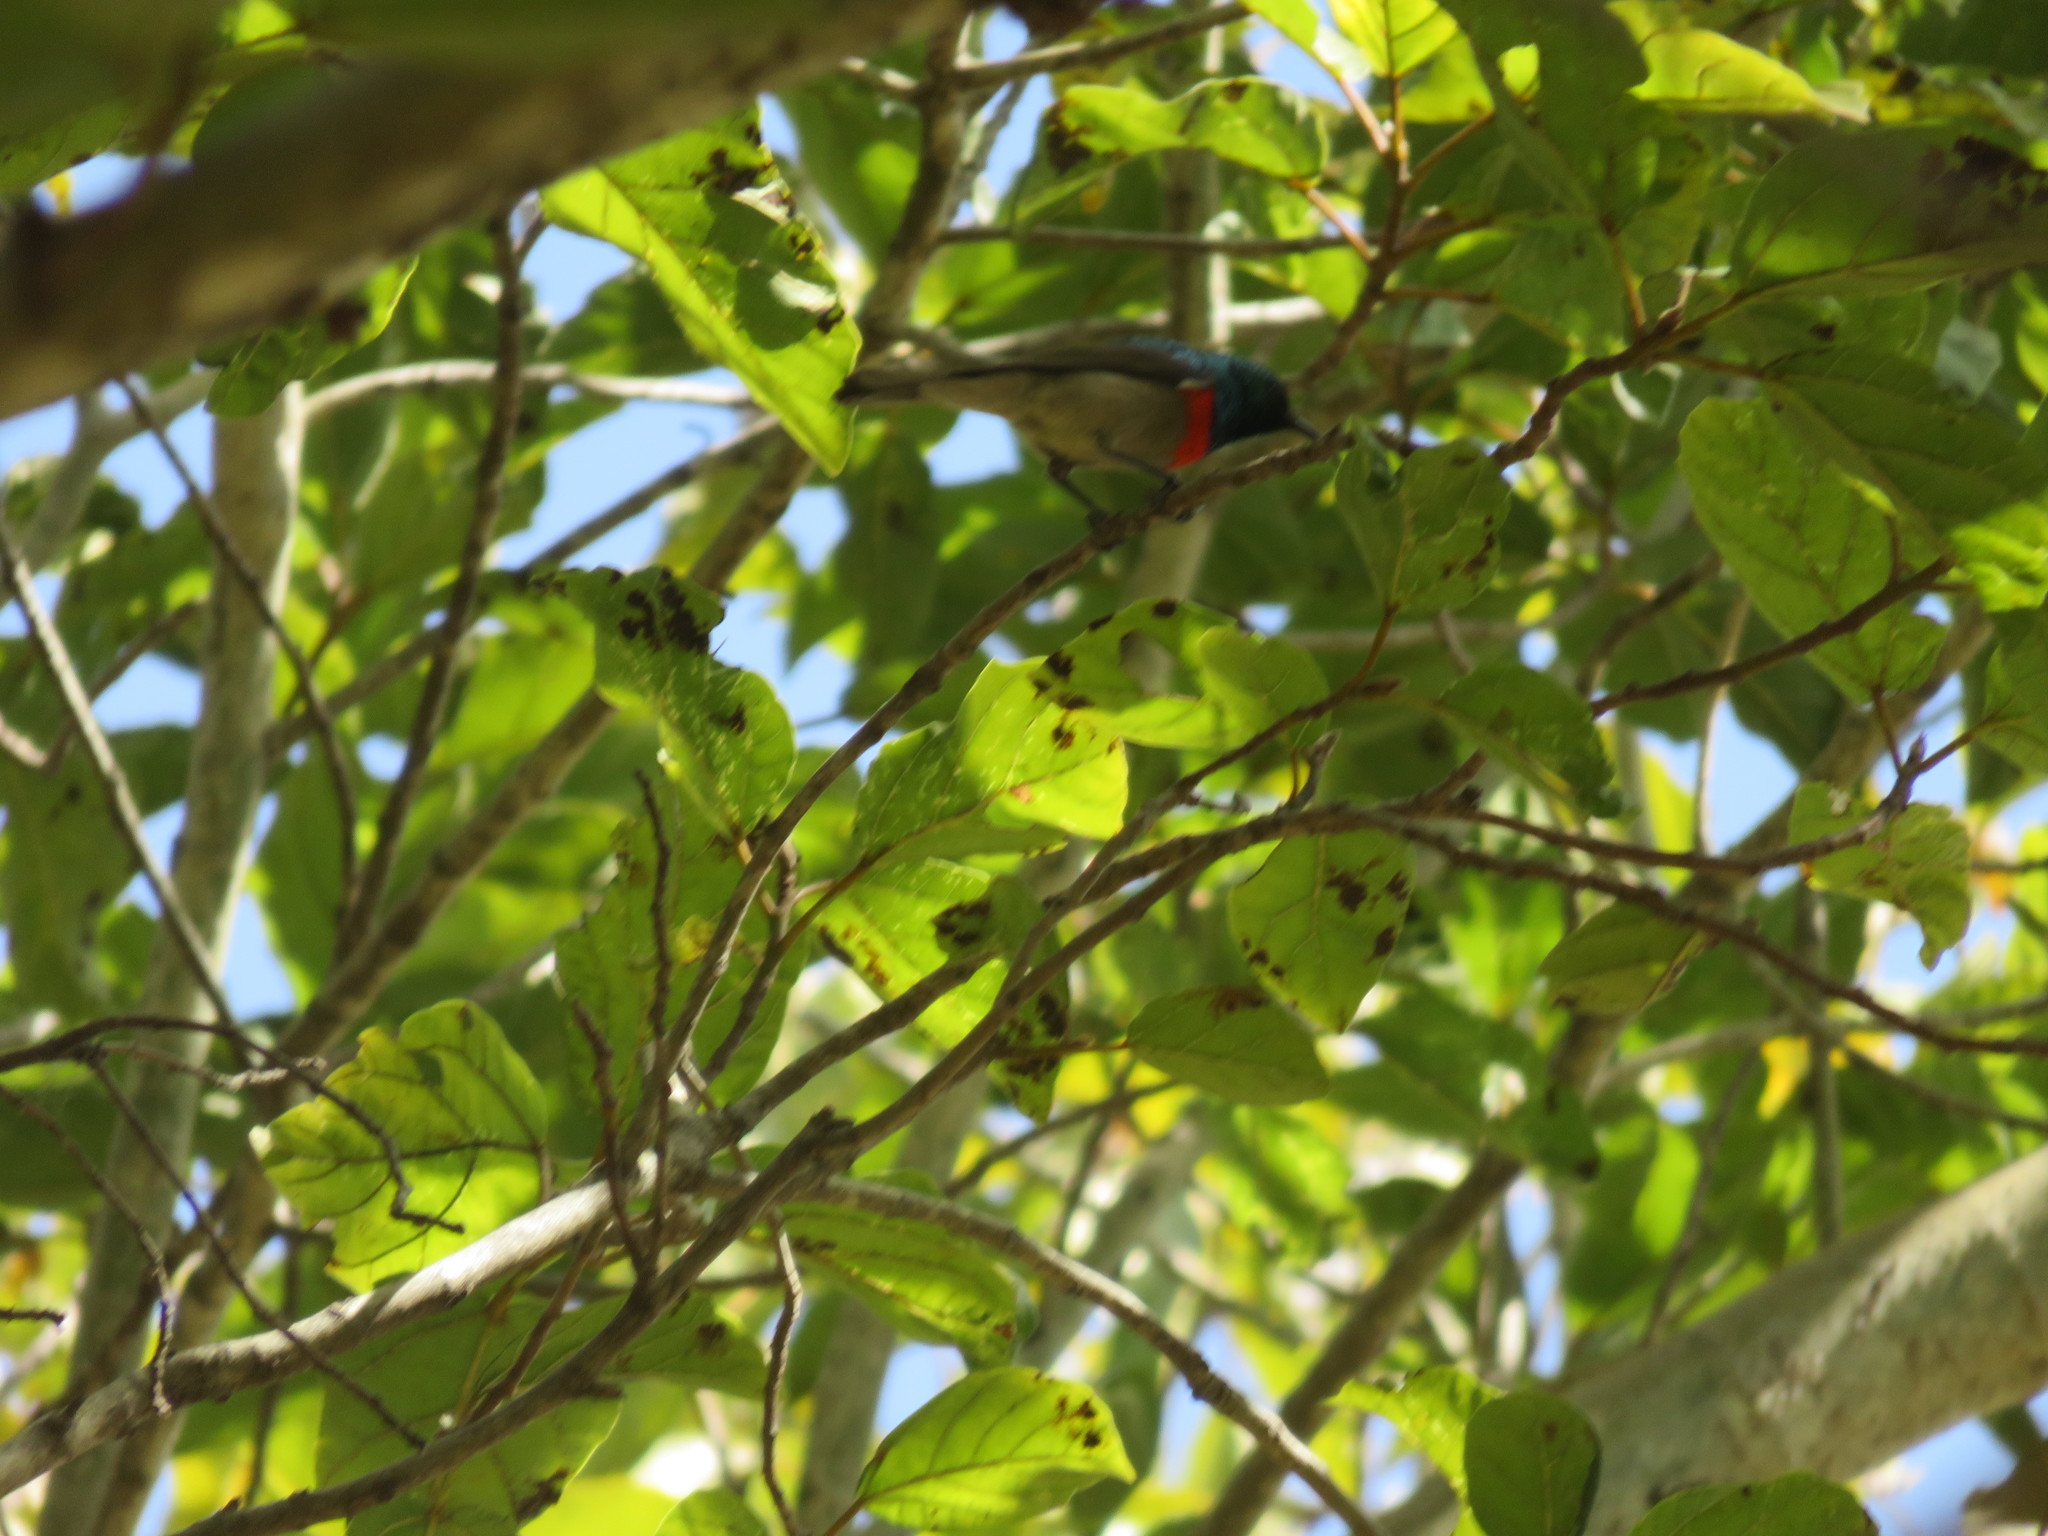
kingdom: Animalia
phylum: Chordata
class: Aves
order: Passeriformes
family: Nectariniidae
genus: Cinnyris
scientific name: Cinnyris manoensis
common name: Eastern miombo sunbird
